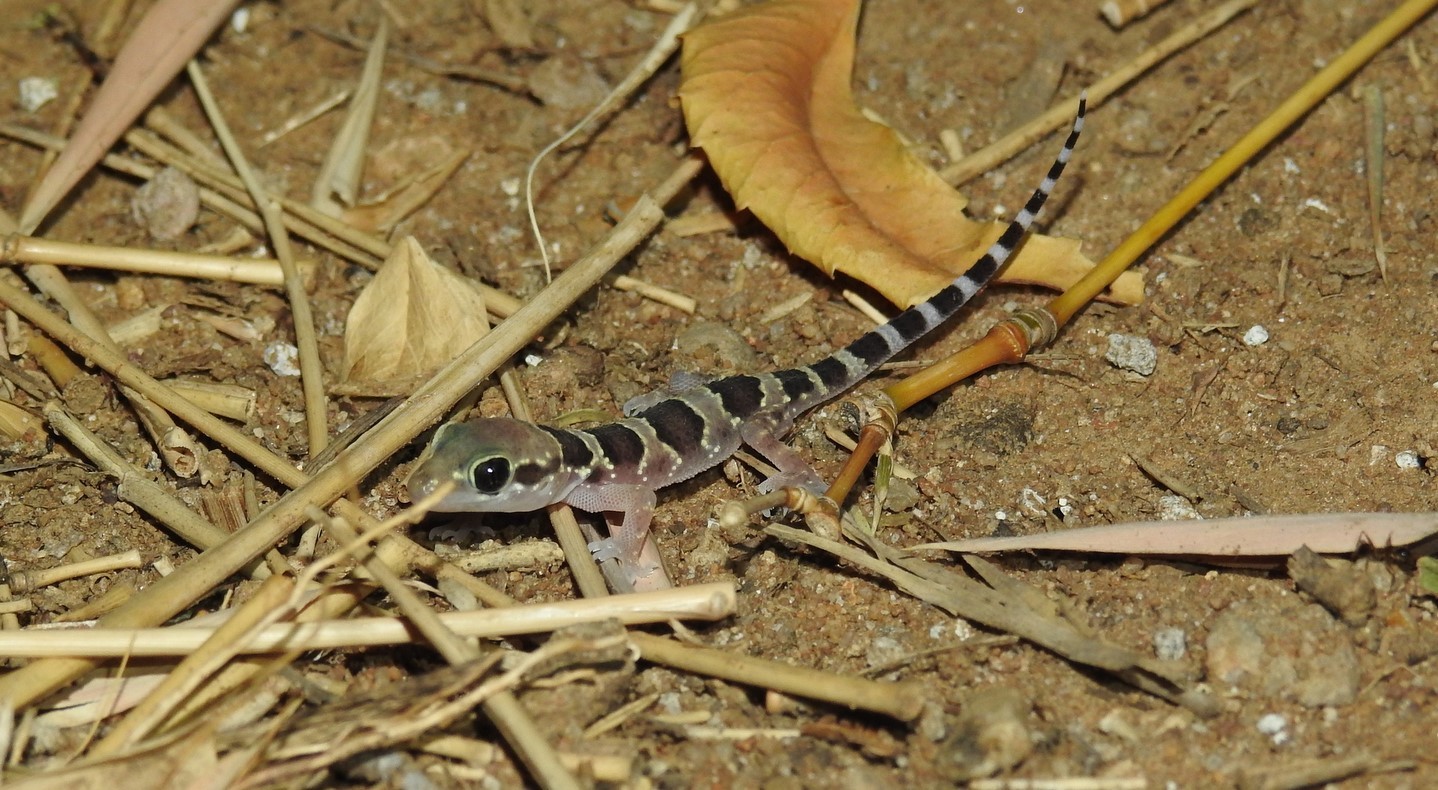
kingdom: Animalia
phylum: Chordata
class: Squamata
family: Gekkonidae
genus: Hemidactylus
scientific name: Hemidactylus triedrus
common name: Blotched house gecko
